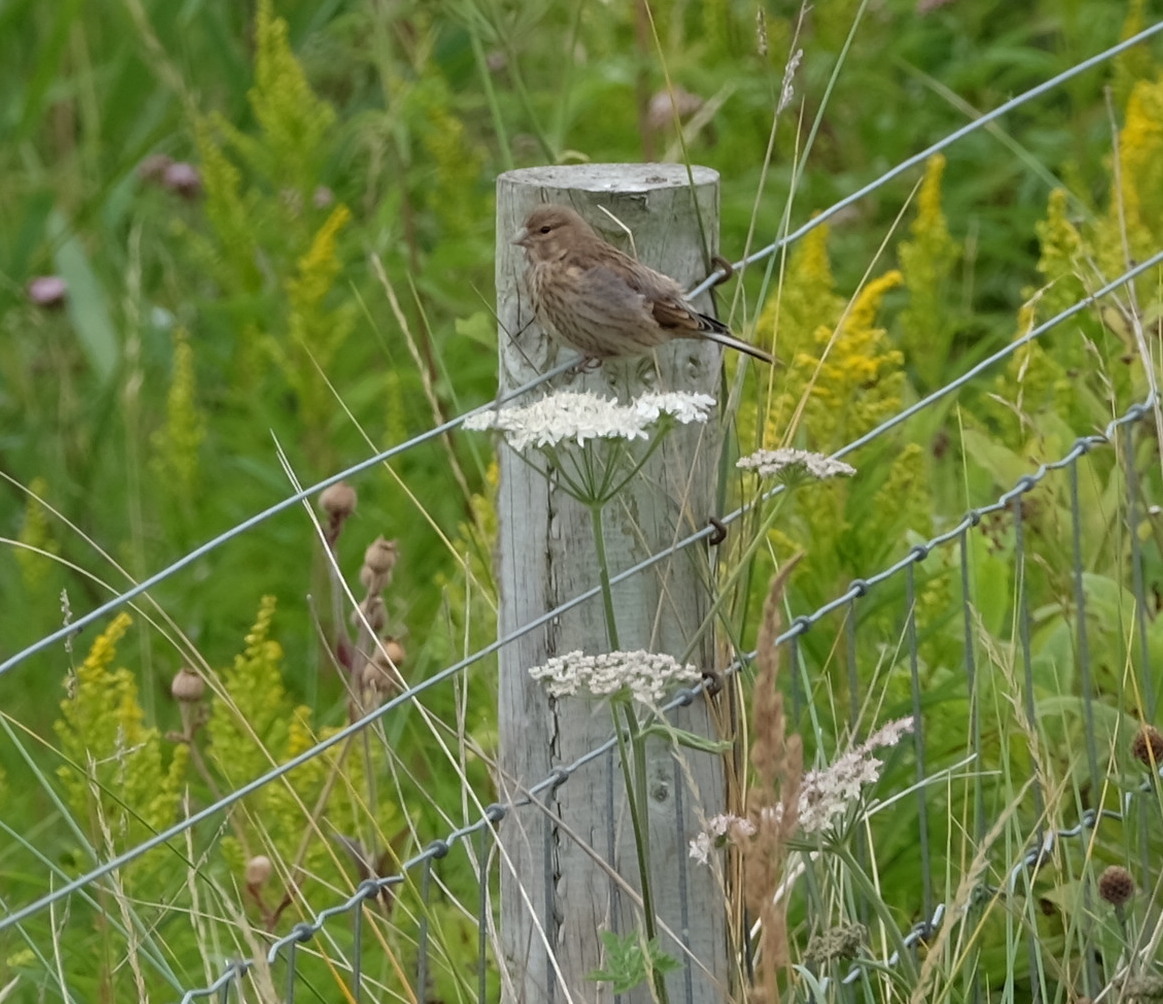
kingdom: Animalia
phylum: Chordata
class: Aves
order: Passeriformes
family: Fringillidae
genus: Linaria
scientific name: Linaria cannabina
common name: Common linnet
